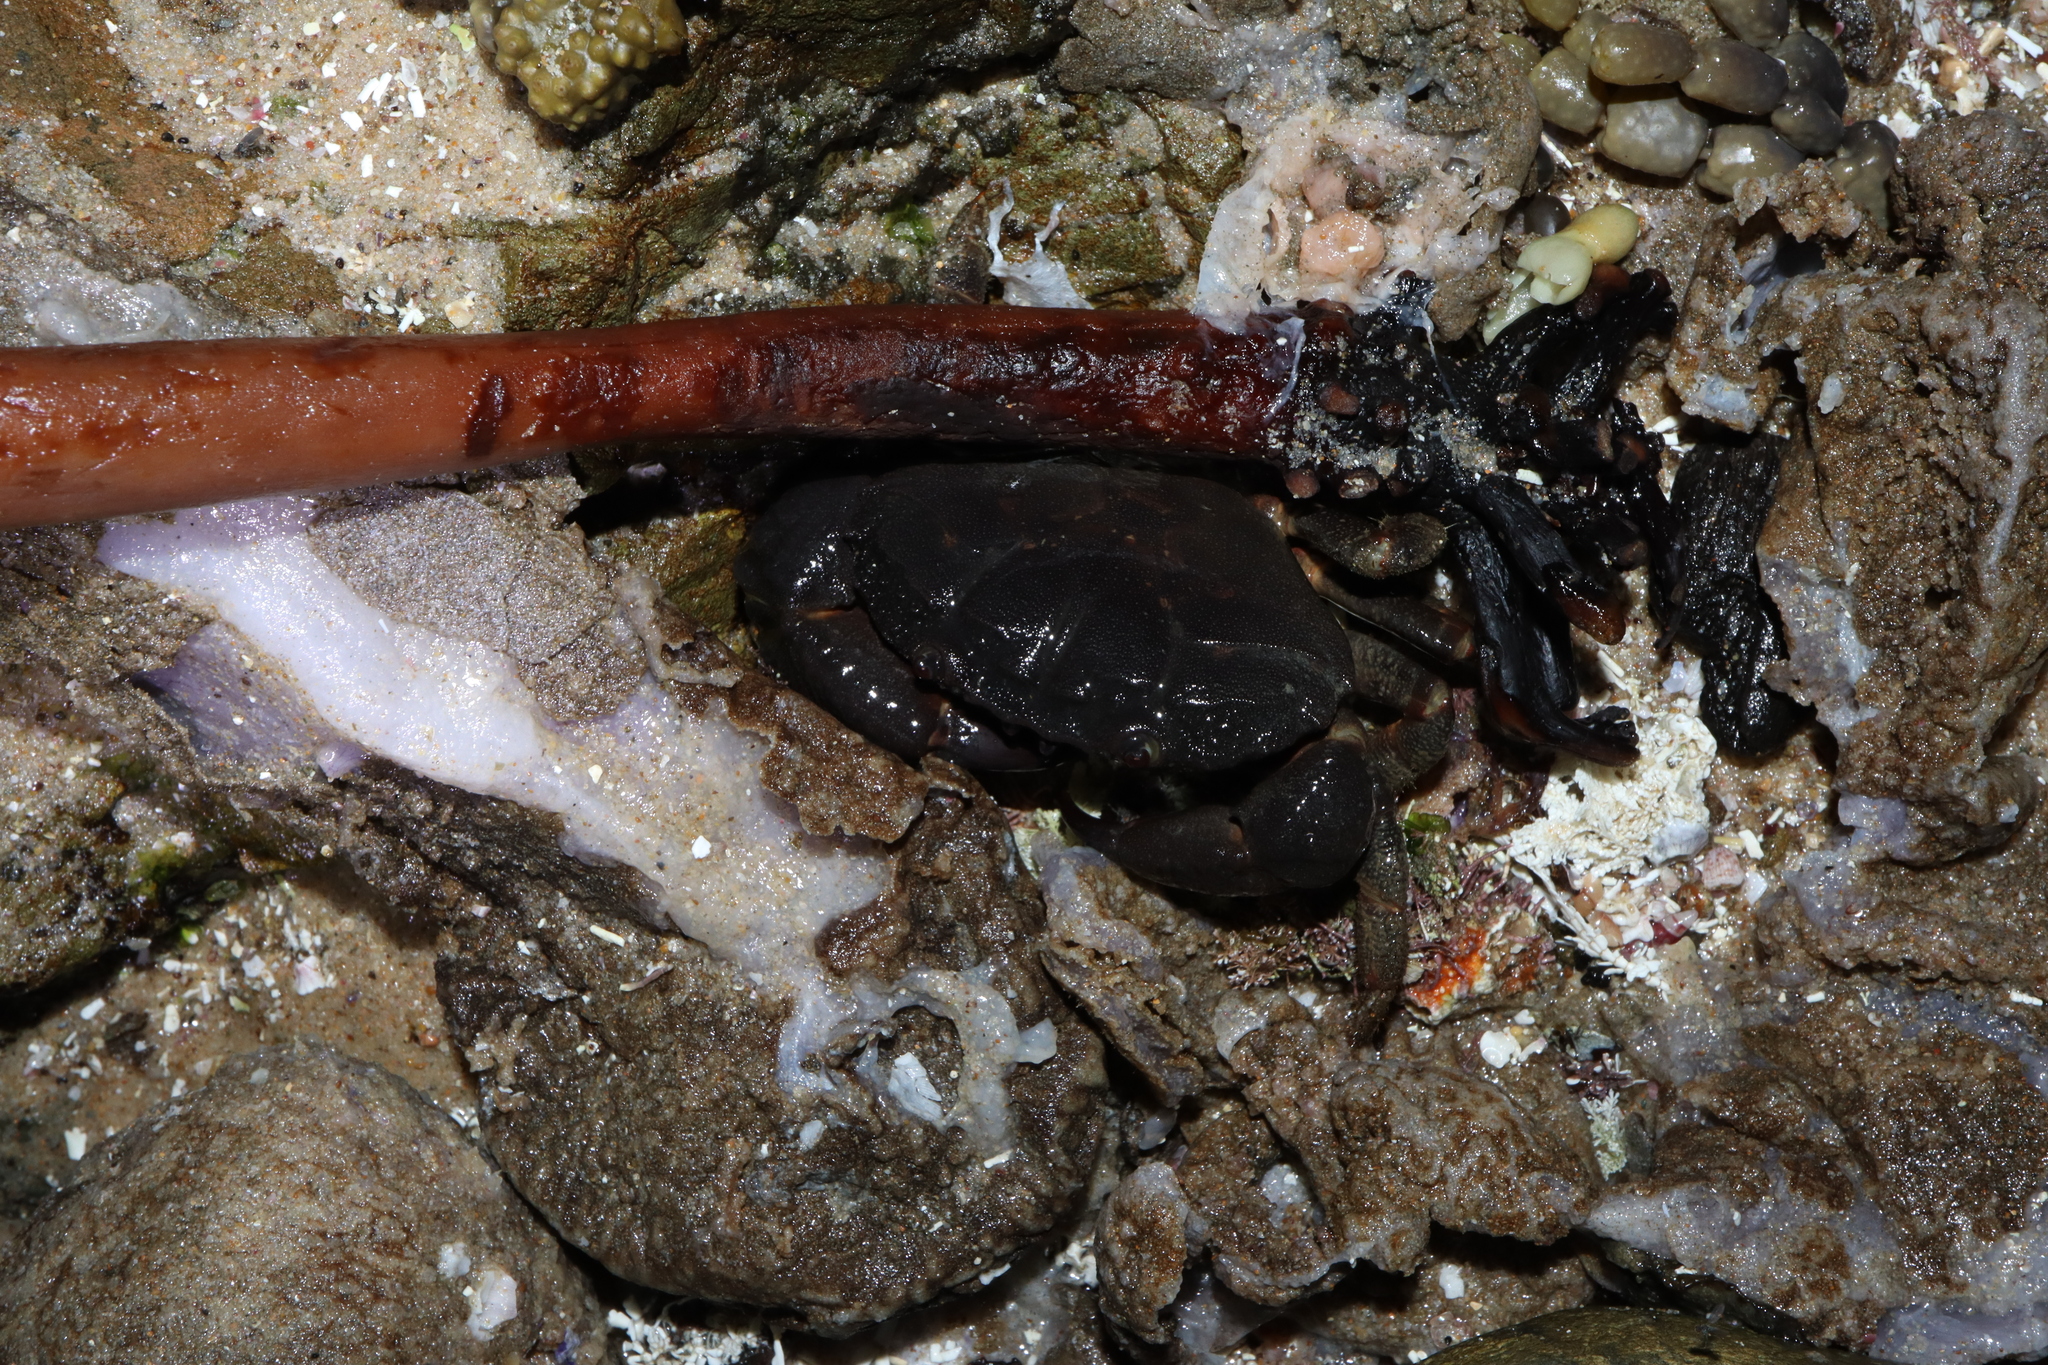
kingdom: Animalia
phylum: Arthropoda
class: Malacostraca
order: Decapoda
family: Oziidae
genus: Ozius
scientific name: Ozius truncatus
